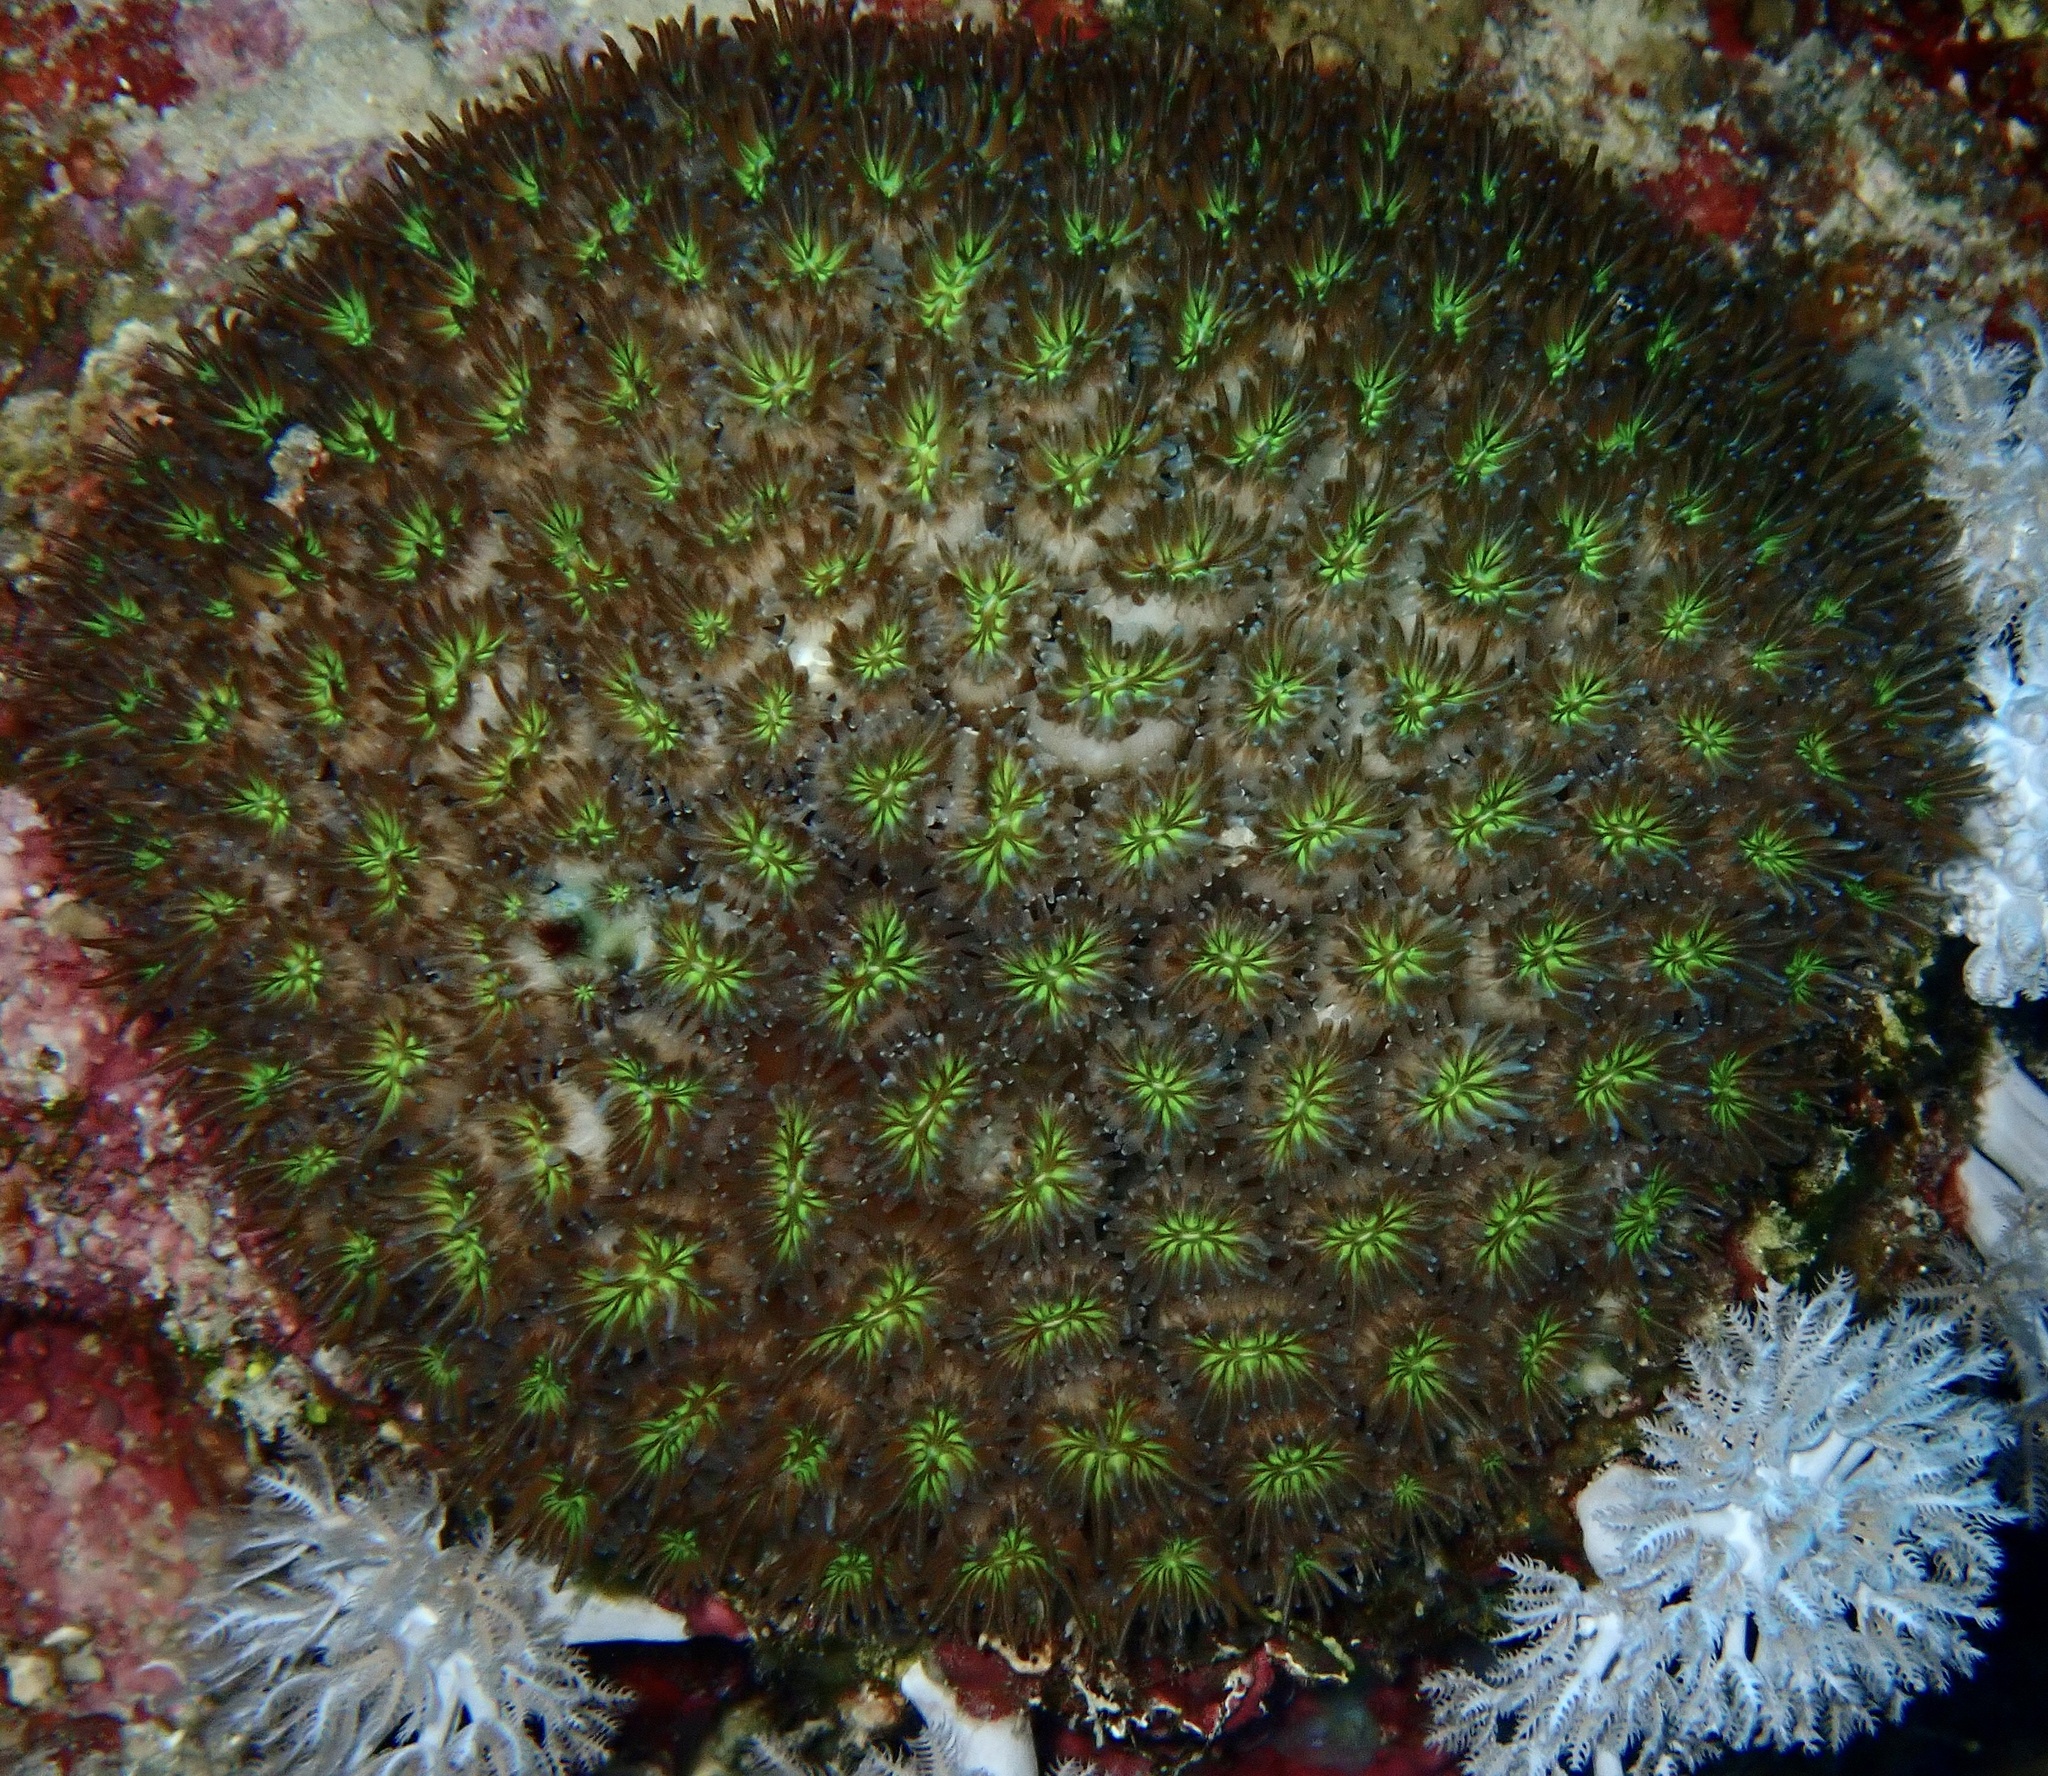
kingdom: Animalia
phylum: Cnidaria
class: Anthozoa
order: Scleractinia
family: Euphylliidae
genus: Galaxea
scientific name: Galaxea fascicularis
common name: Octopus coral
